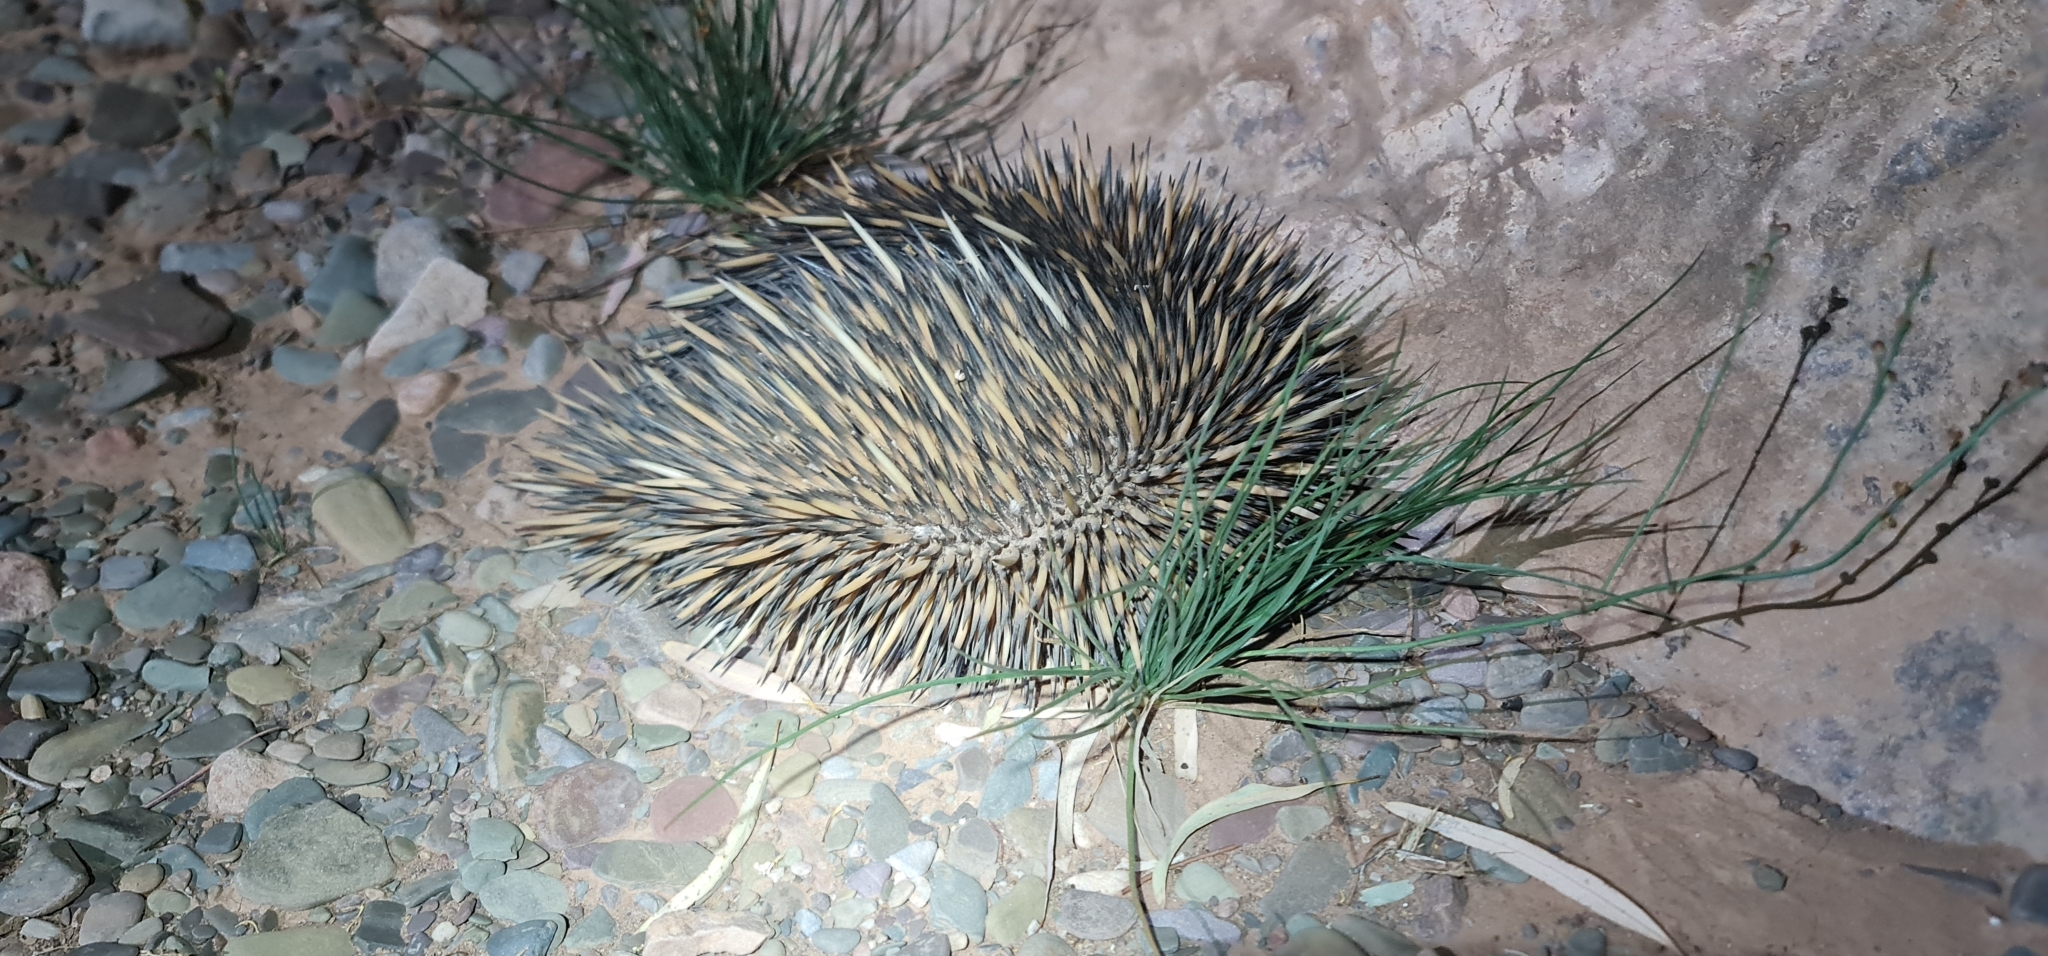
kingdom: Animalia
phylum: Chordata
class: Mammalia
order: Monotremata
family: Tachyglossidae
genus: Tachyglossus
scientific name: Tachyglossus aculeatus
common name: Short-beaked echidna
